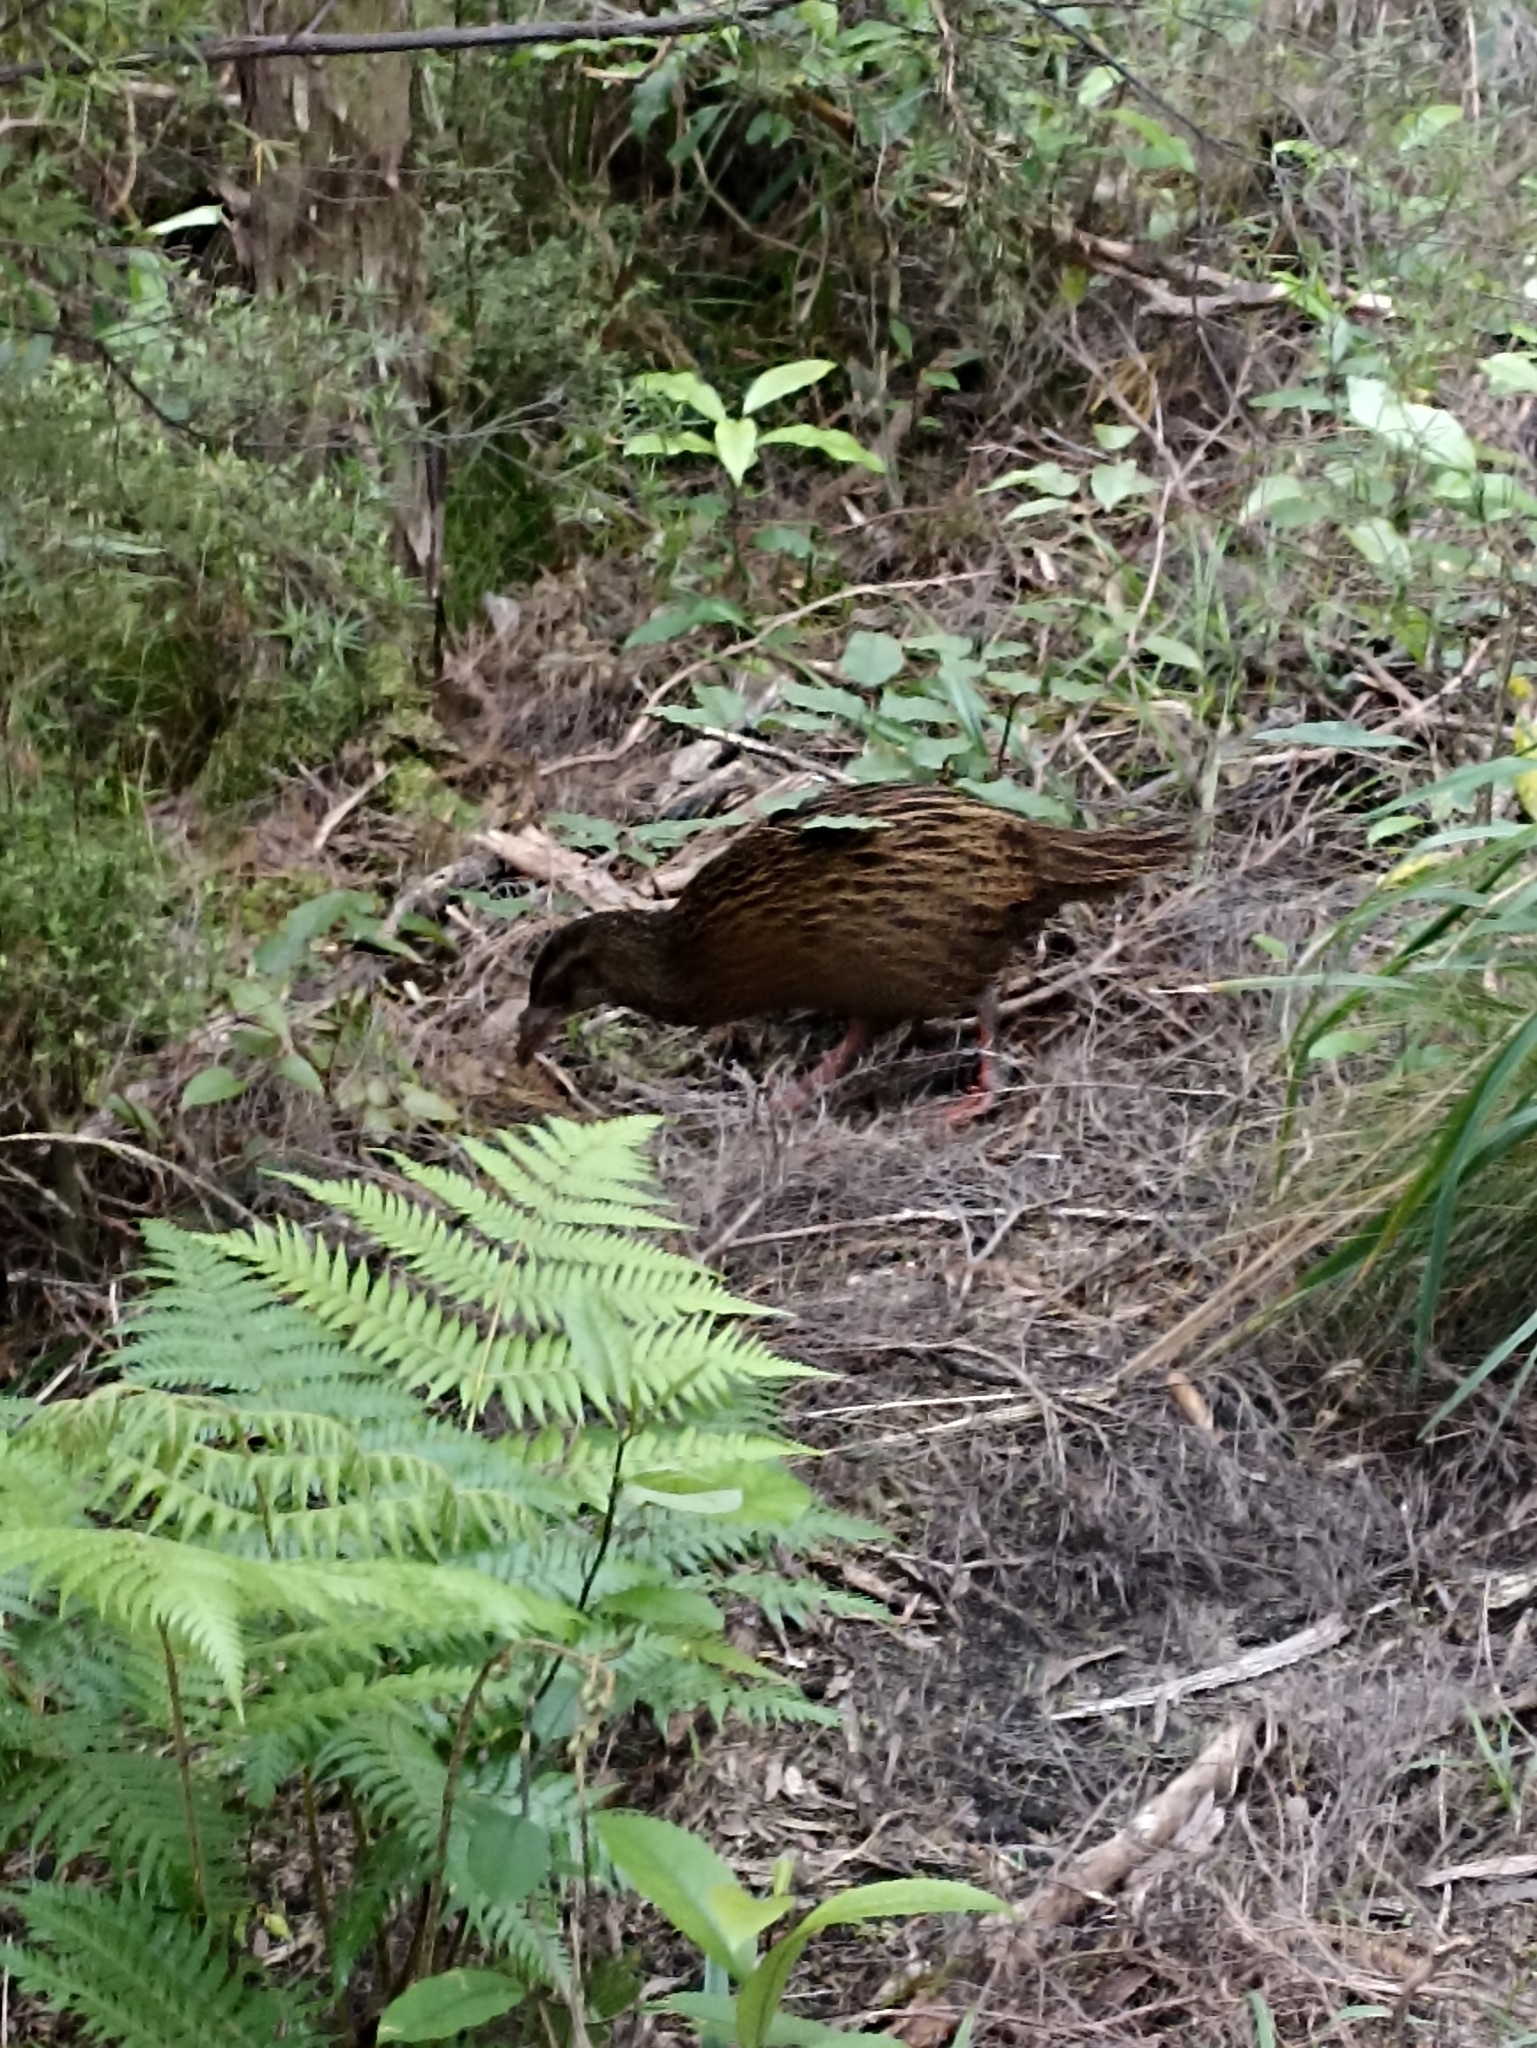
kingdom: Animalia
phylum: Chordata
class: Aves
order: Gruiformes
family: Rallidae
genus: Gallirallus
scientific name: Gallirallus australis
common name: Weka
